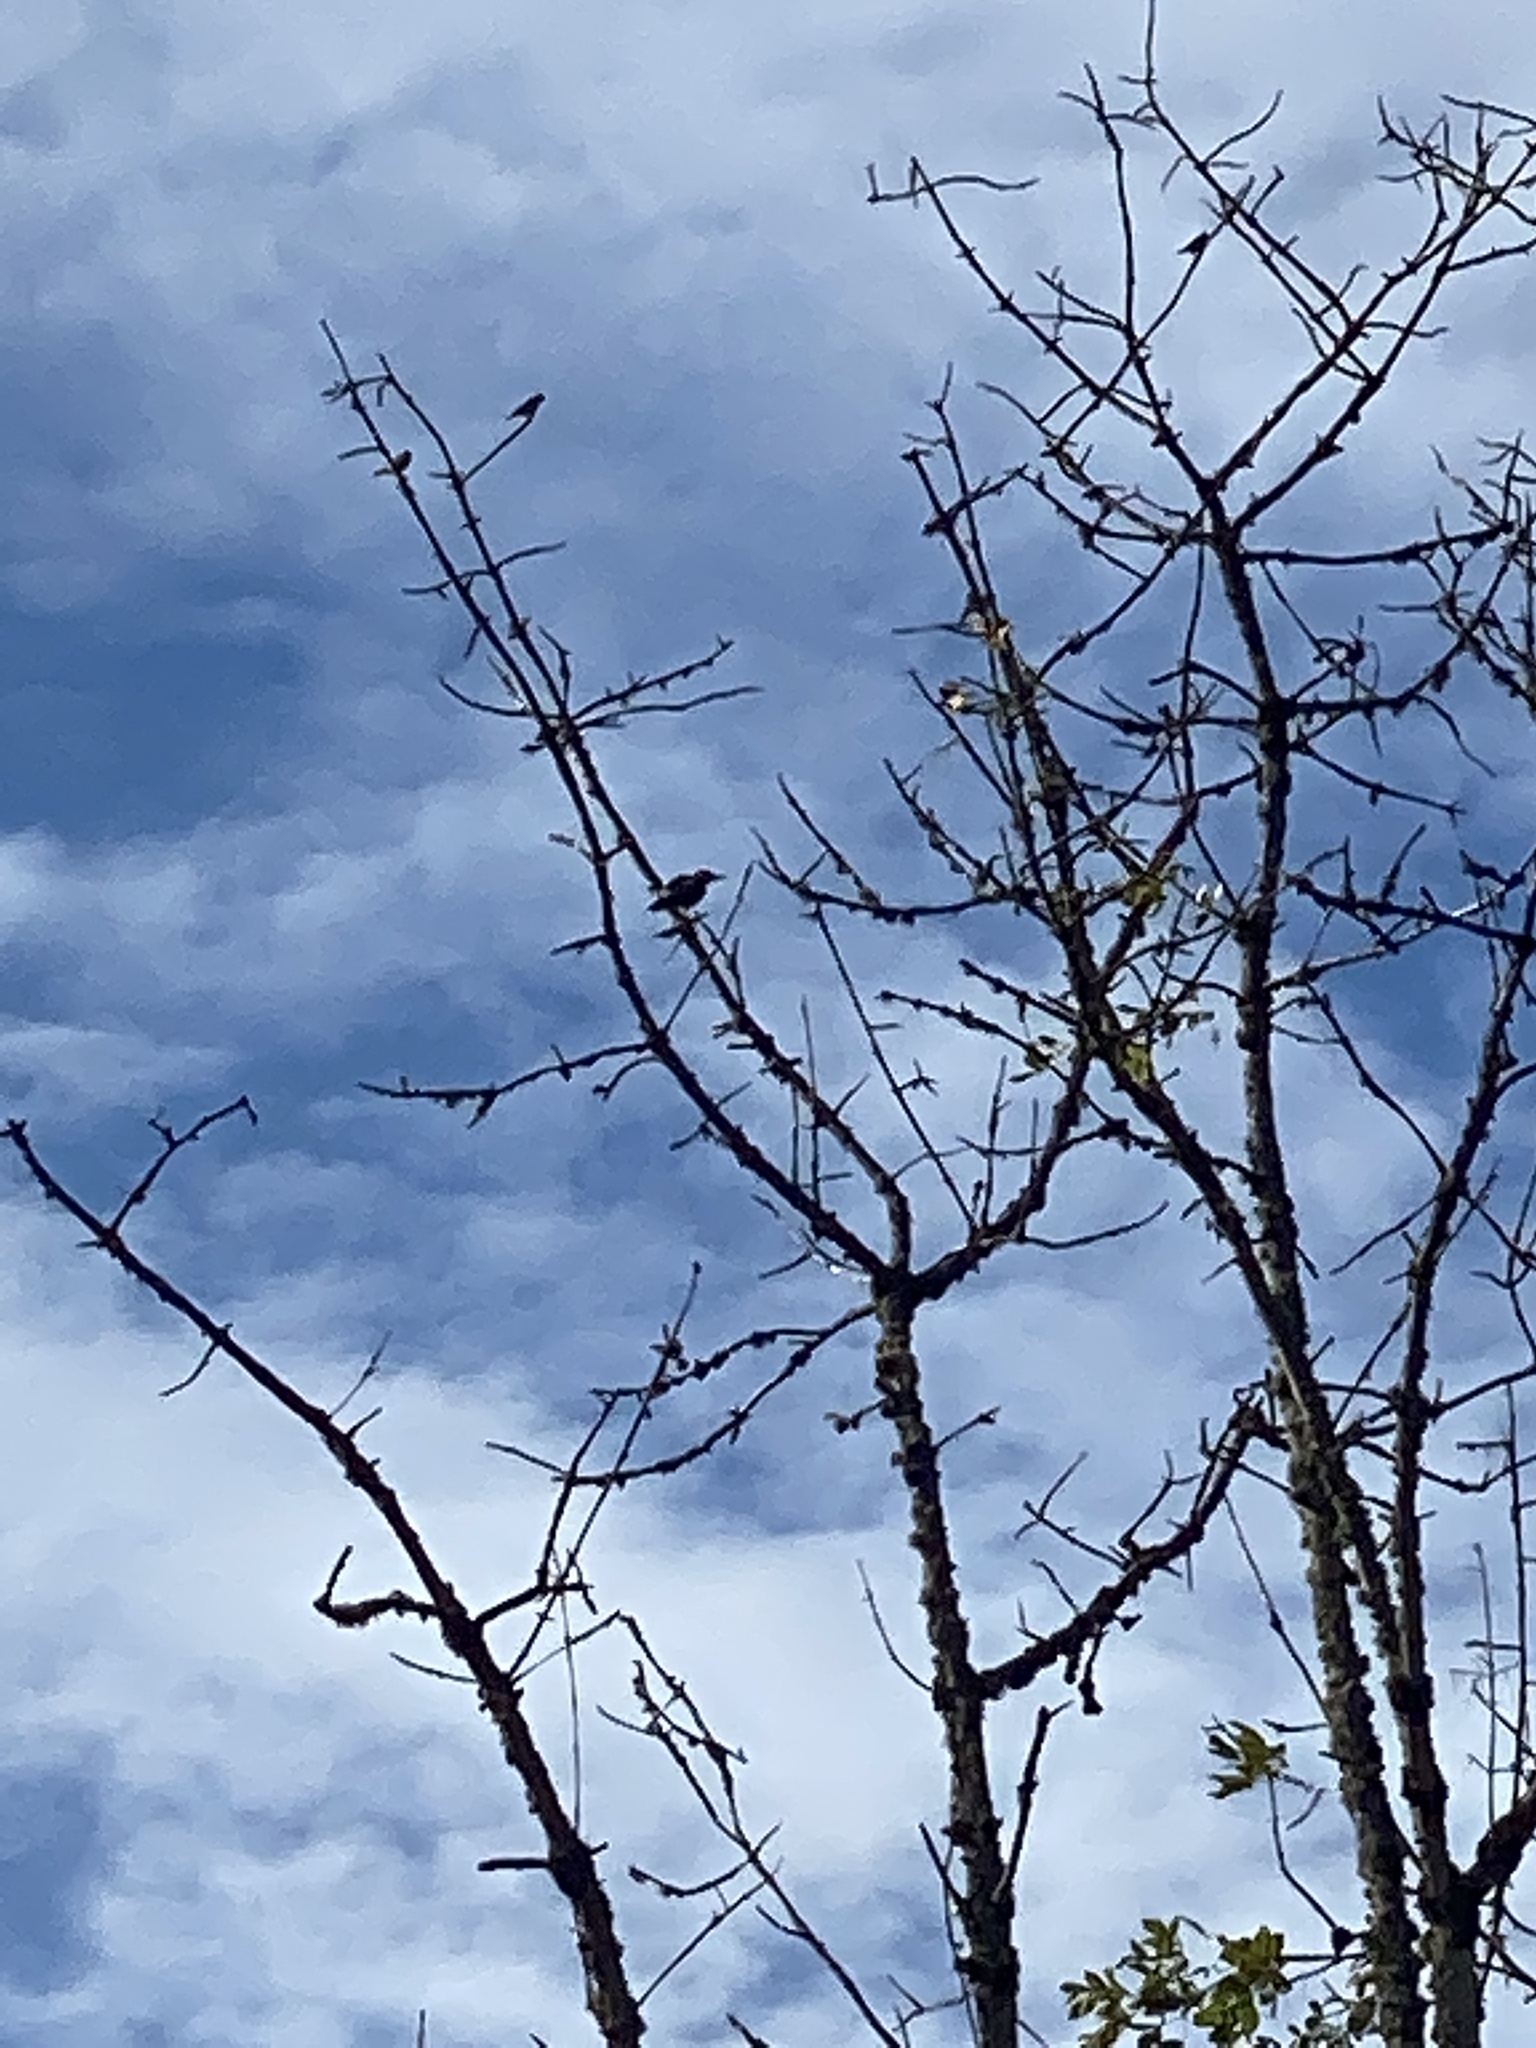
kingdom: Animalia
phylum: Chordata
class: Aves
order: Piciformes
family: Picidae
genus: Colaptes
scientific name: Colaptes auratus
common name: Northern flicker
